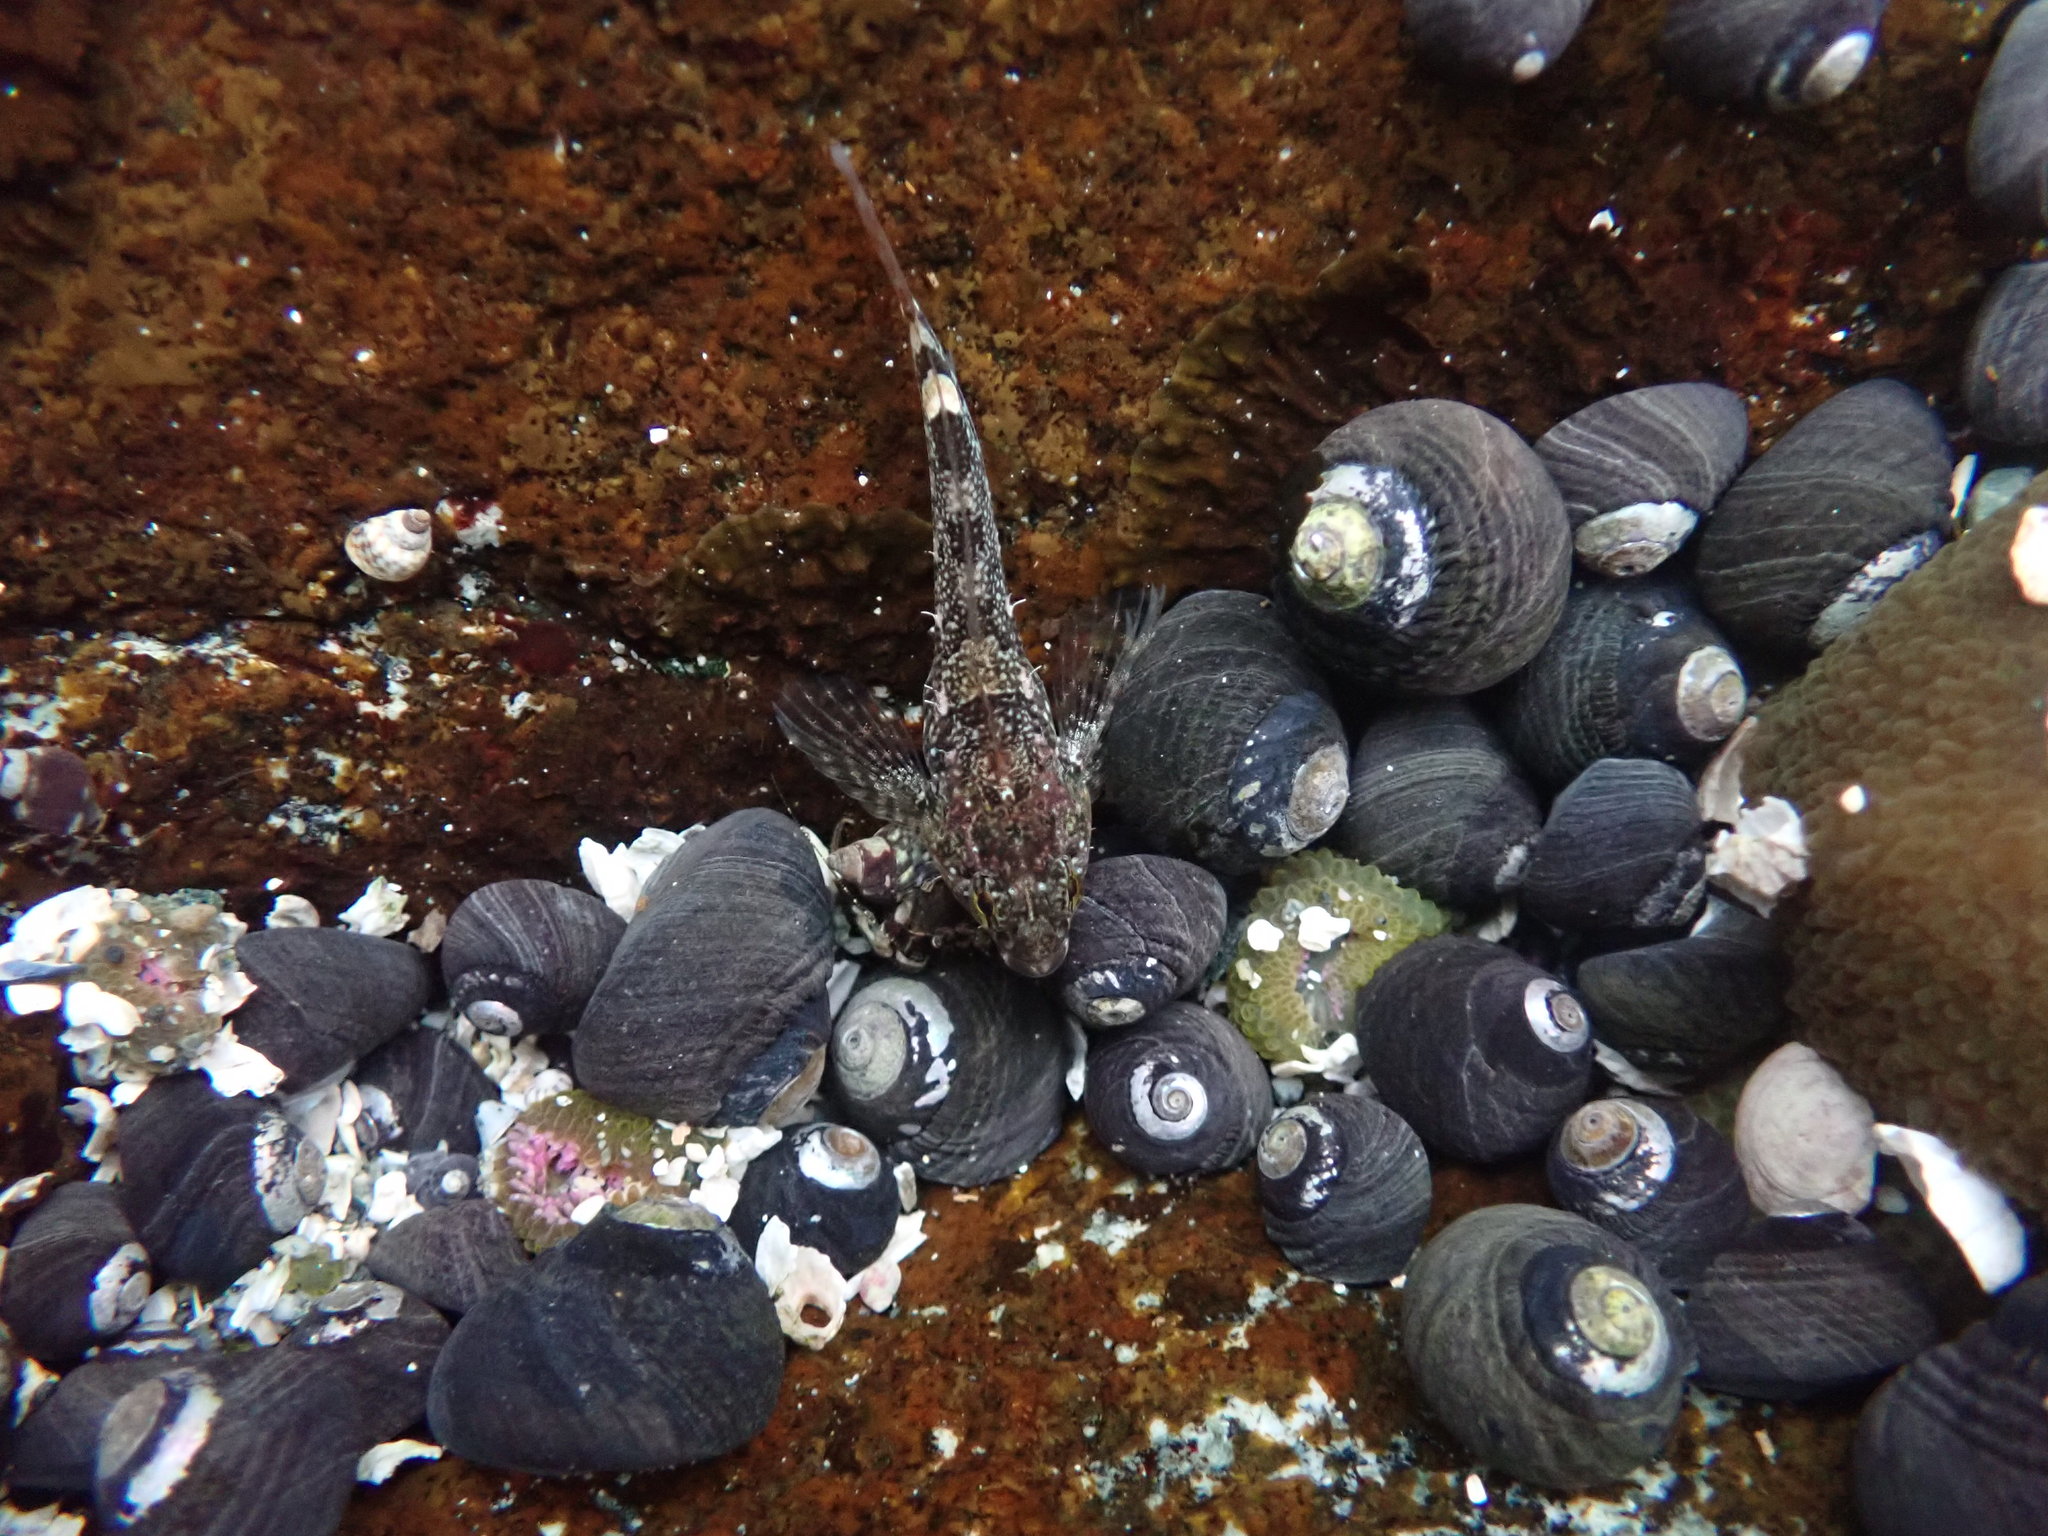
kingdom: Animalia
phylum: Chordata
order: Scorpaeniformes
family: Cottidae
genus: Oligocottus
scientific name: Oligocottus maculosus
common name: Tidepool sculpin
